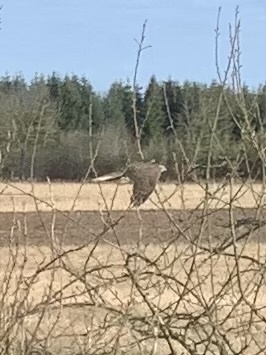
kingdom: Animalia
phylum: Chordata
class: Aves
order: Accipitriformes
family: Accipitridae
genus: Accipiter
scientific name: Accipiter nisus
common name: Eurasian sparrowhawk
